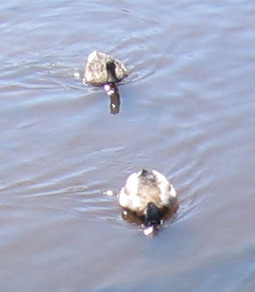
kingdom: Animalia
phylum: Chordata
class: Aves
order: Anseriformes
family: Anatidae
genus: Anas
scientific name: Anas platyrhynchos
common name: Mallard
